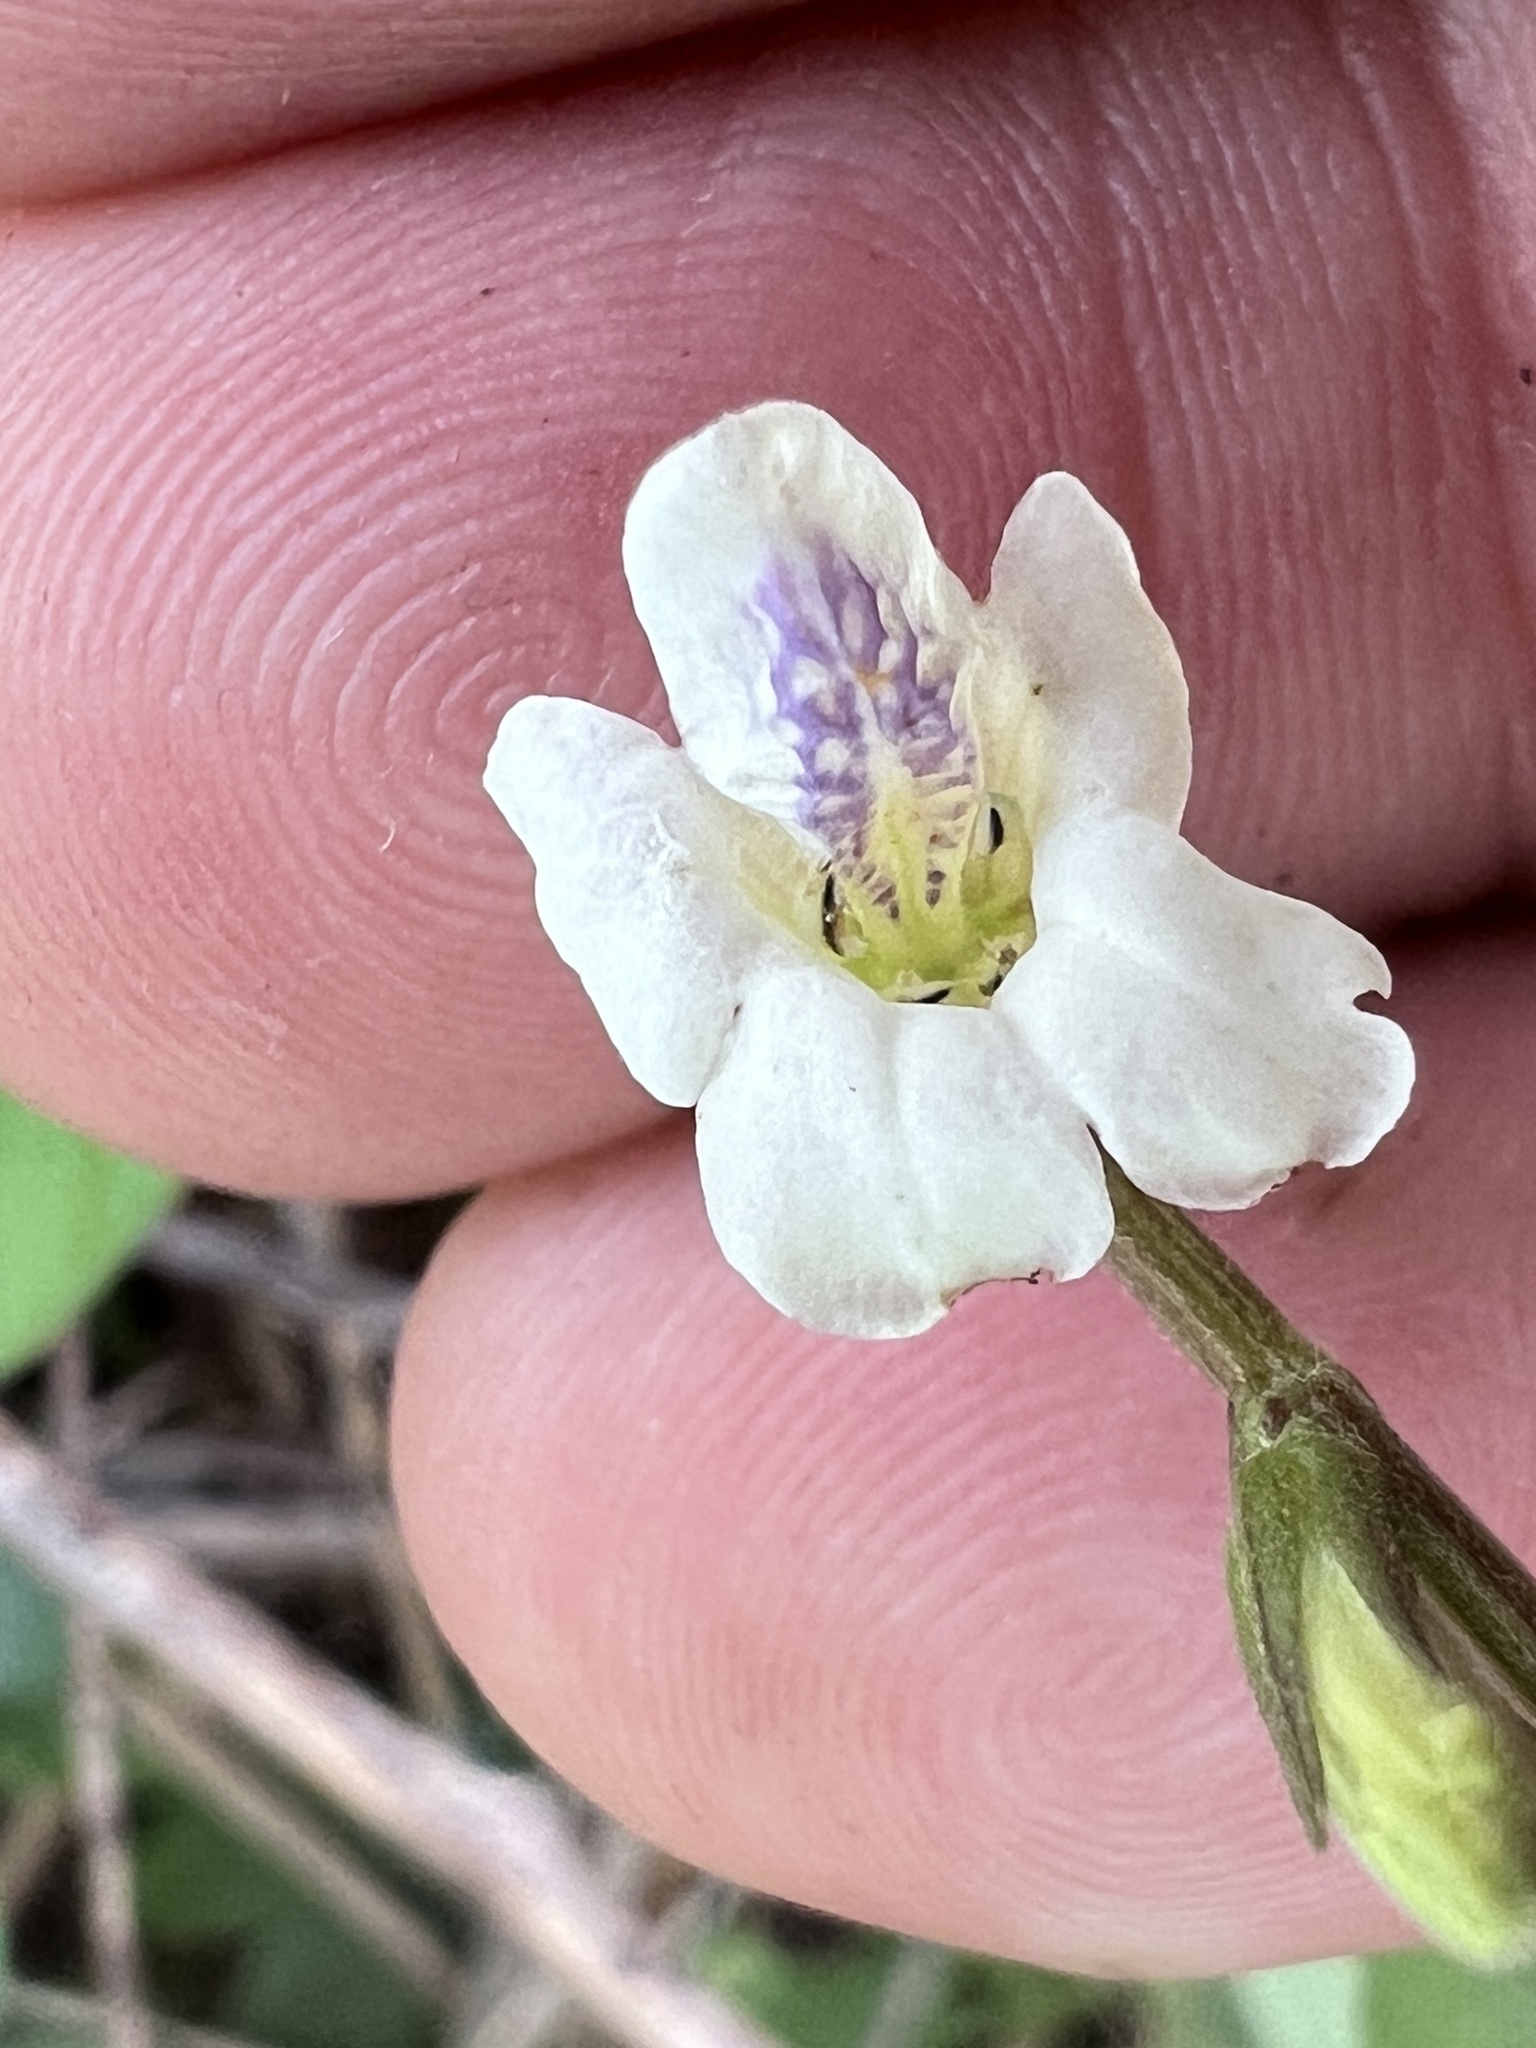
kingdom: Plantae
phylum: Tracheophyta
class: Magnoliopsida
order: Lamiales
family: Acanthaceae
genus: Asystasia
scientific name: Asystasia intrusa
